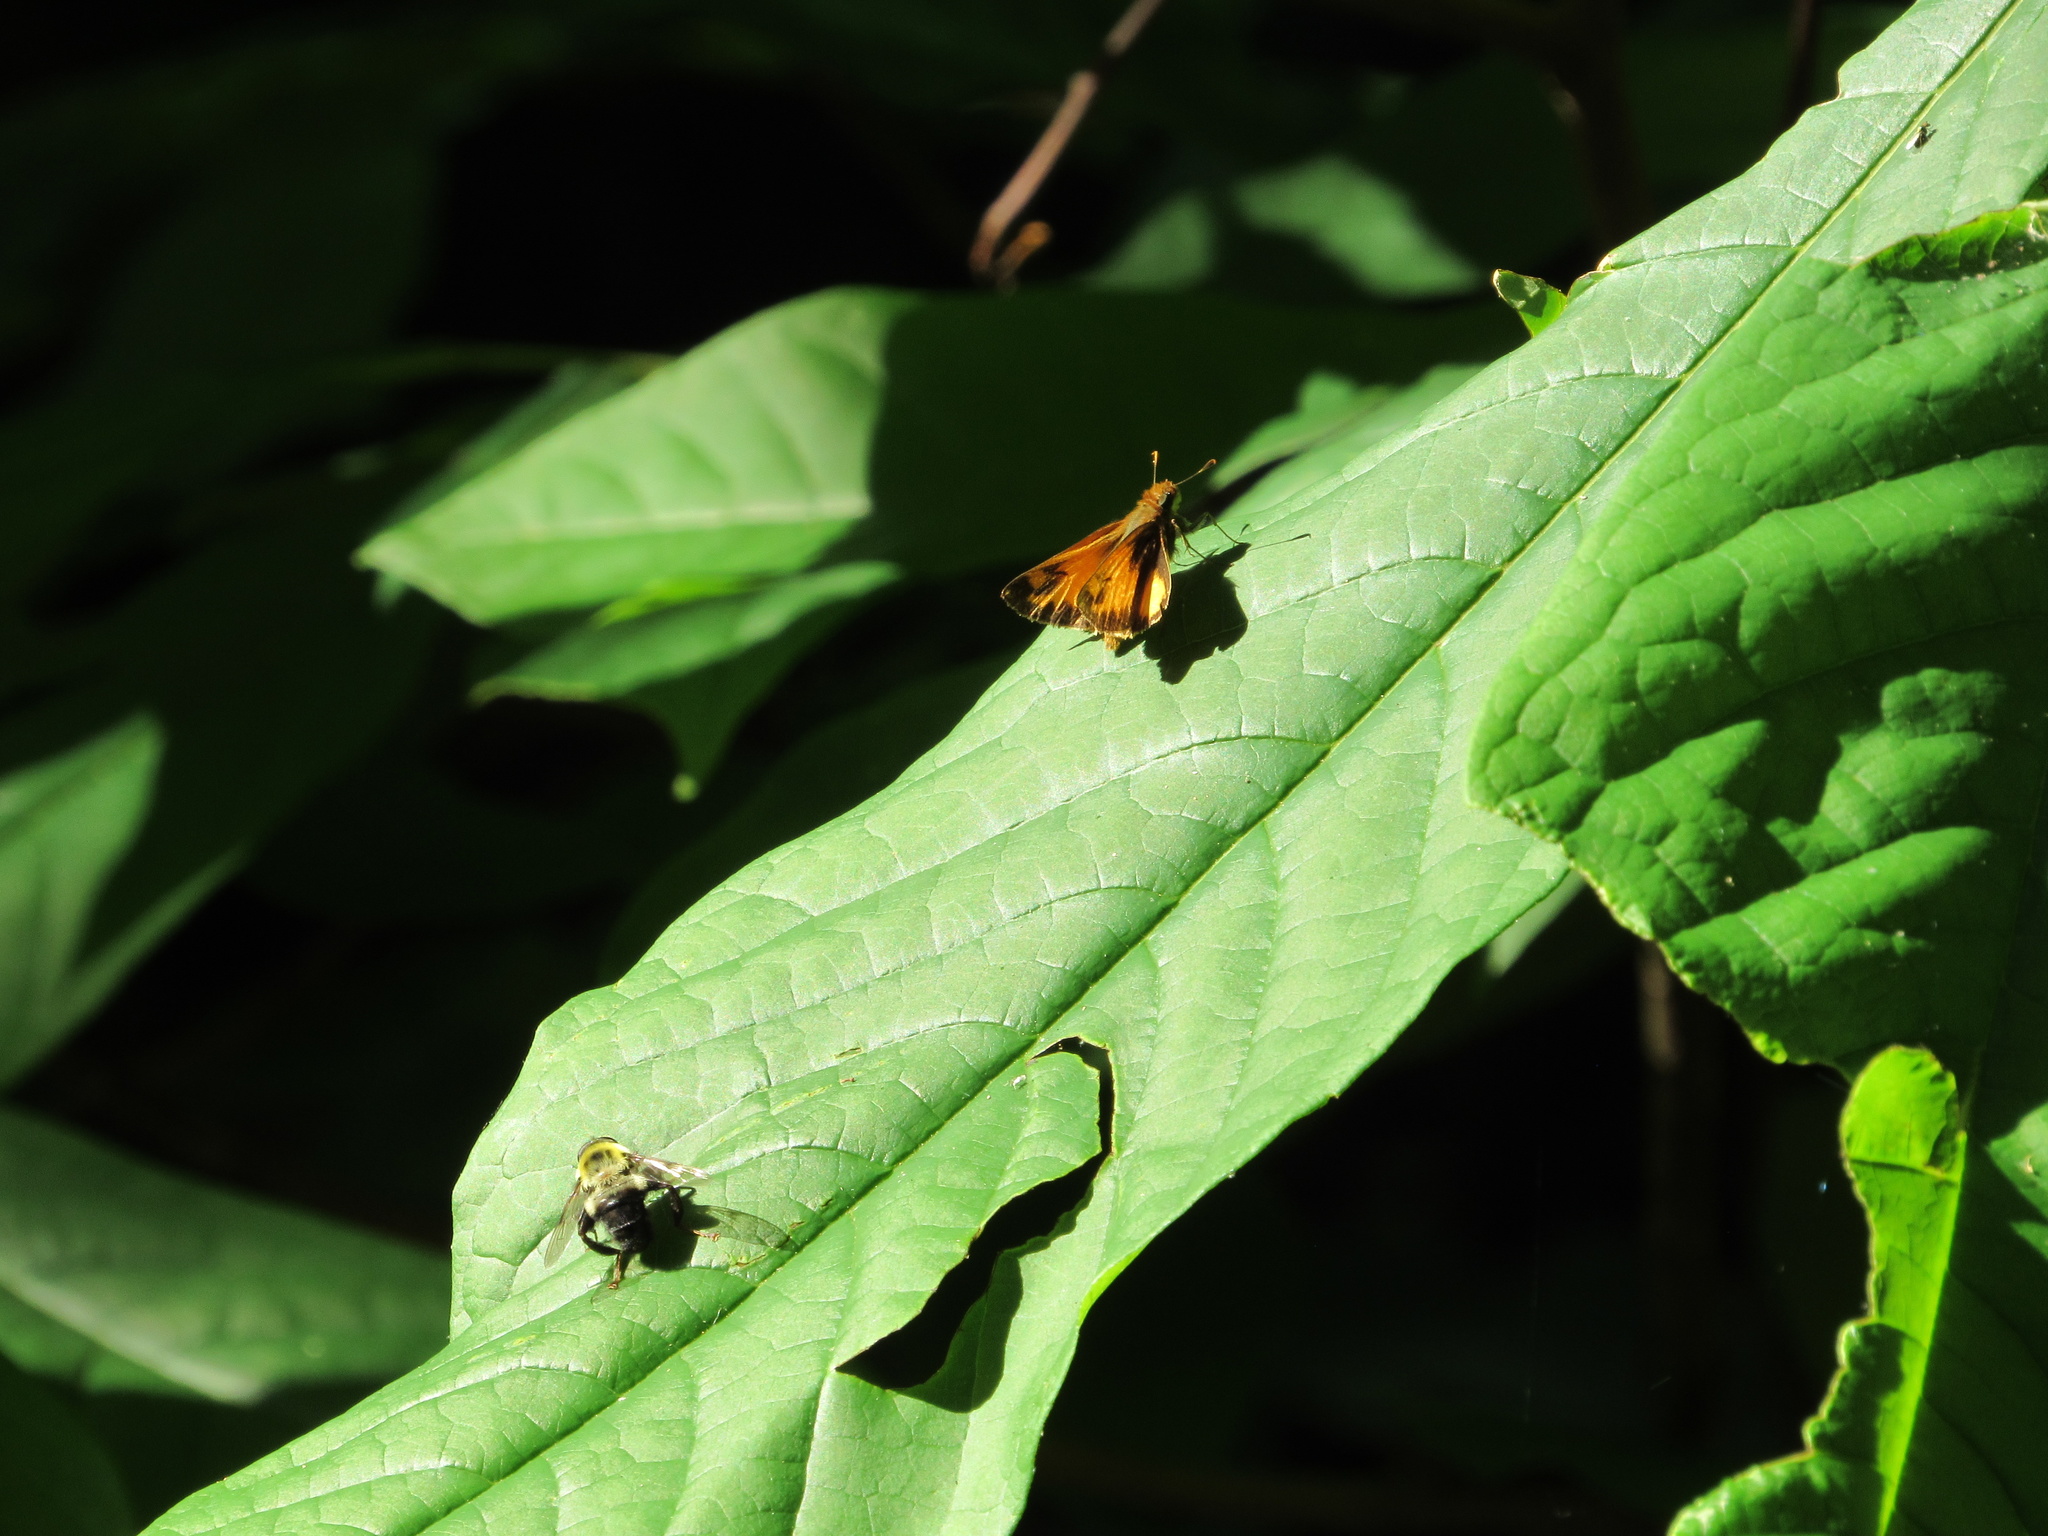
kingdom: Animalia
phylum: Arthropoda
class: Insecta
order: Diptera
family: Syrphidae
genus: Imatisma
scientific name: Imatisma posticata
